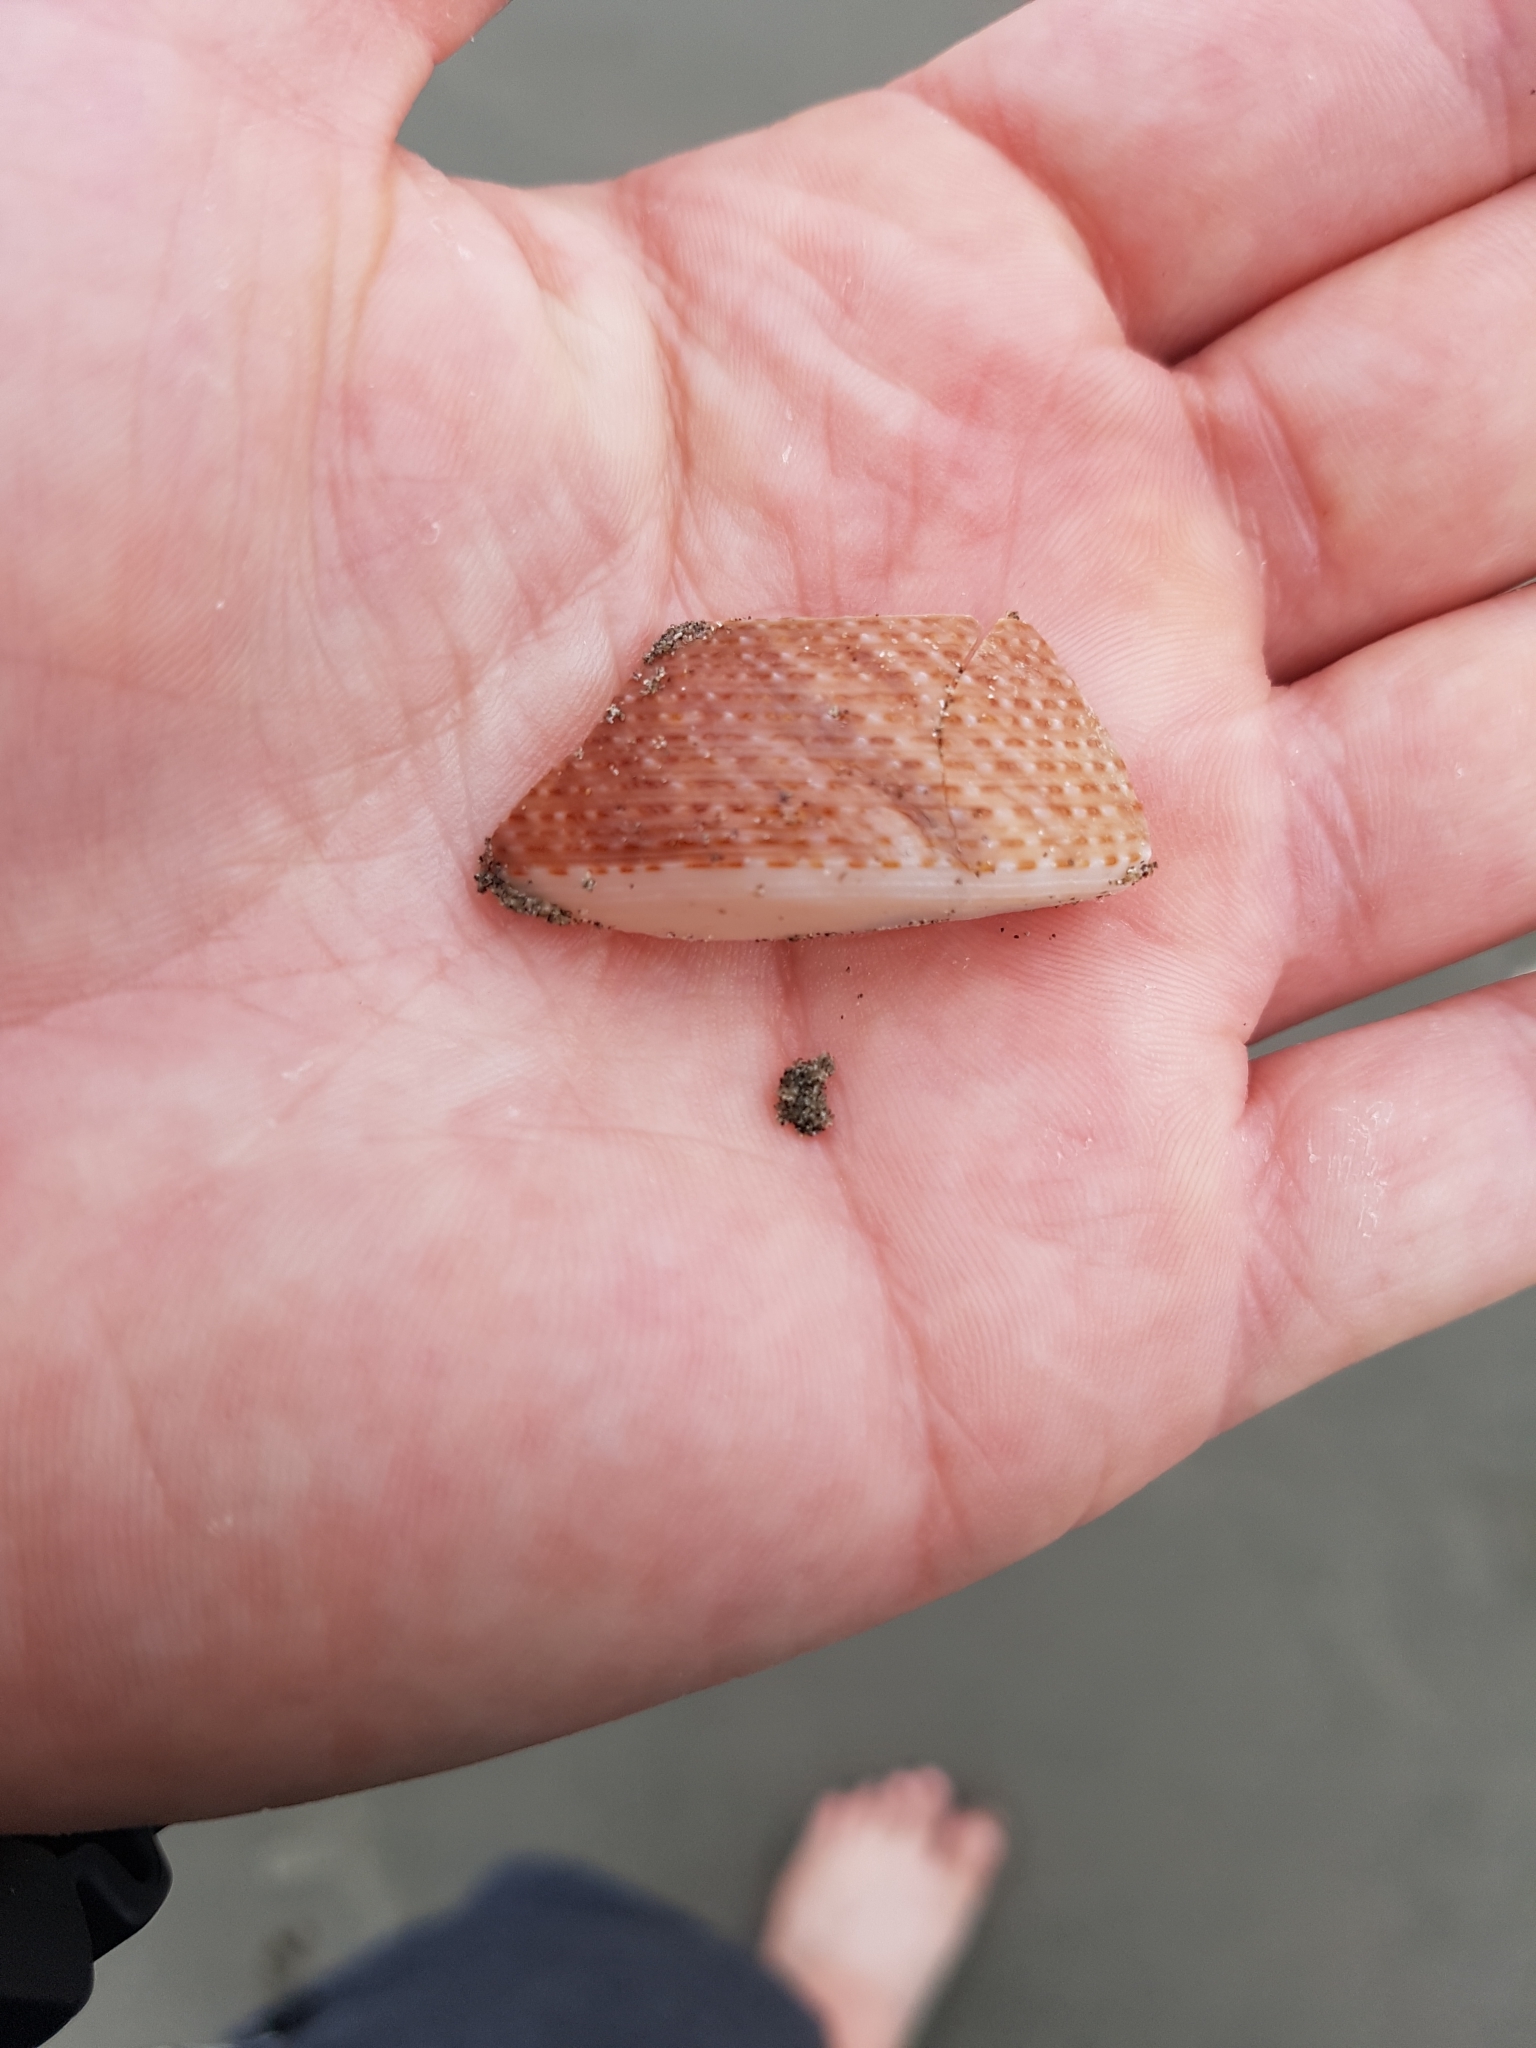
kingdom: Animalia
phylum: Mollusca
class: Gastropoda
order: Trochida
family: Calliostomatidae
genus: Maurea
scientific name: Maurea selecta
